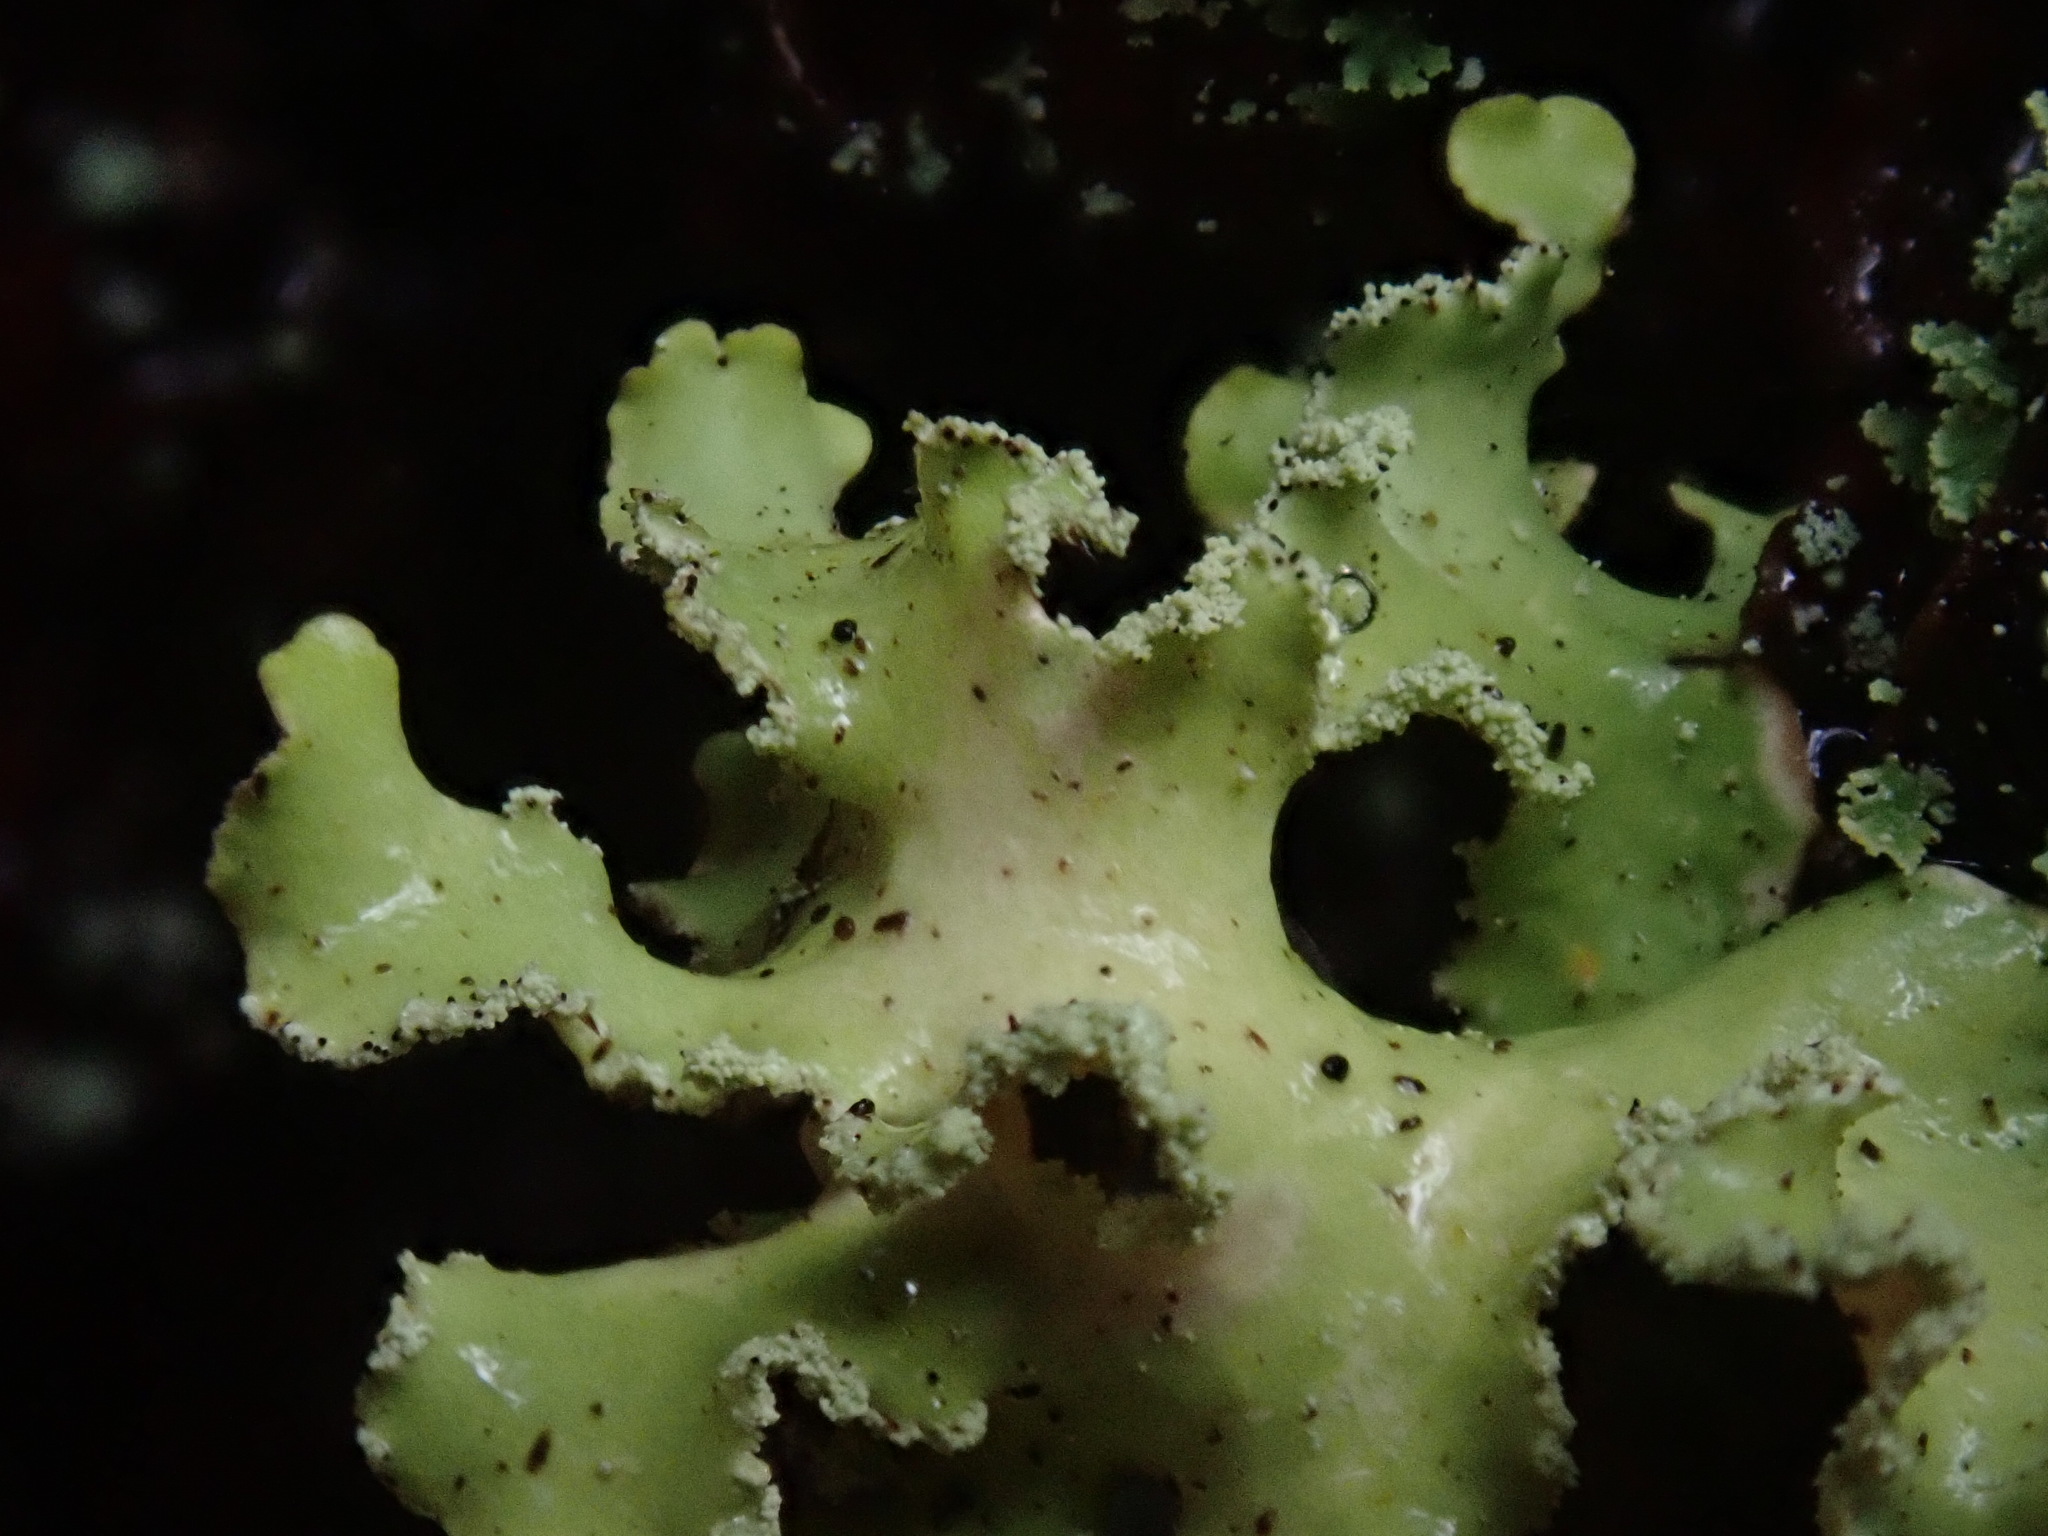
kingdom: Fungi
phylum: Ascomycota
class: Lecanoromycetes
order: Lecanorales
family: Parmeliaceae
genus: Usnocetraria
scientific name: Usnocetraria oakesiana
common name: Yellow ribbon lichen
